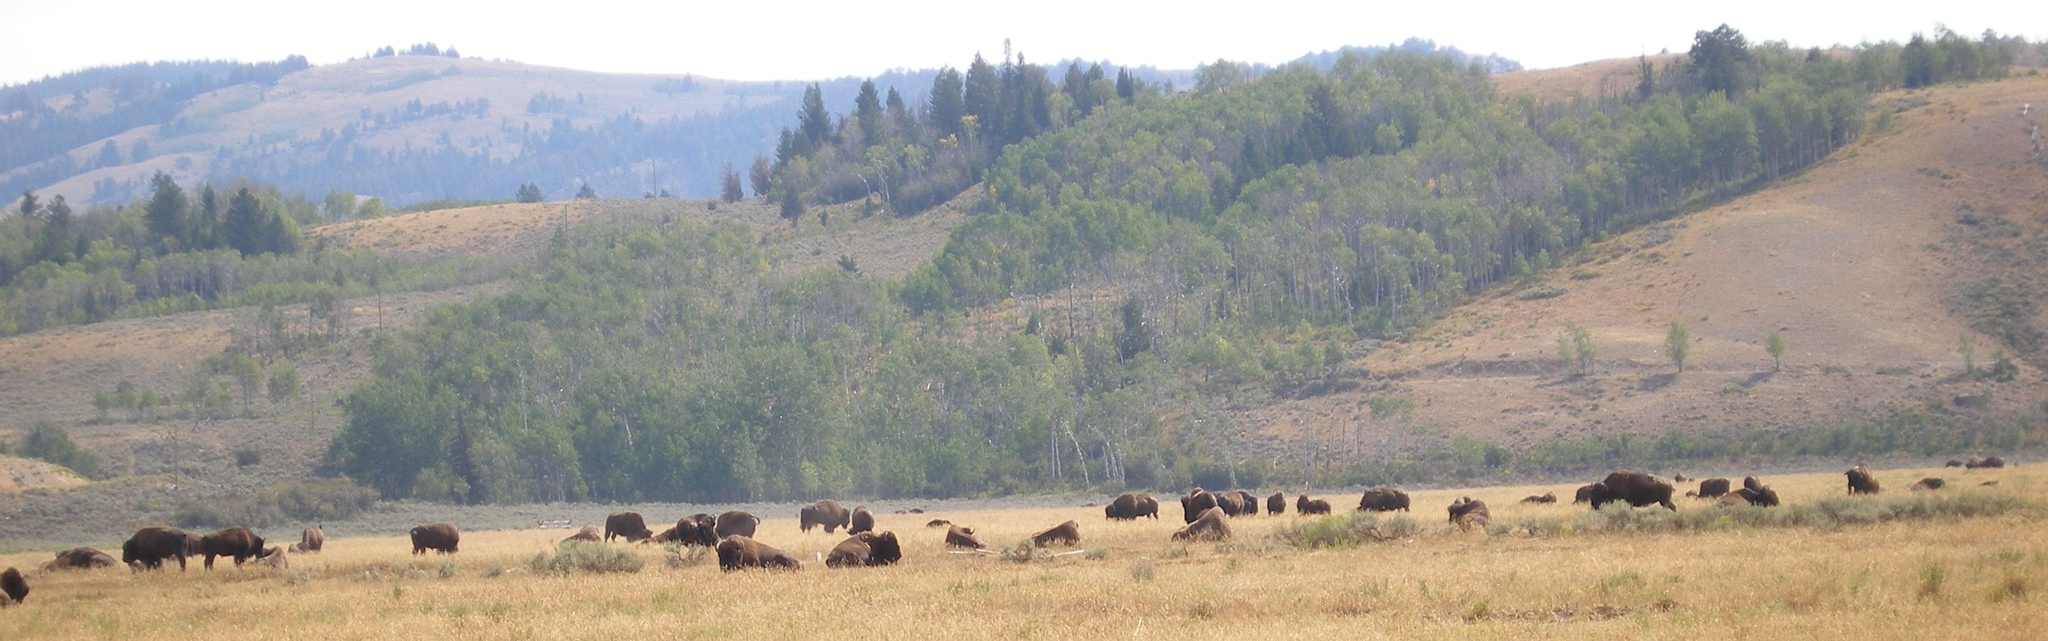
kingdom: Animalia
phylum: Chordata
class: Mammalia
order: Artiodactyla
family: Bovidae
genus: Bison
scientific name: Bison bison
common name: American bison
